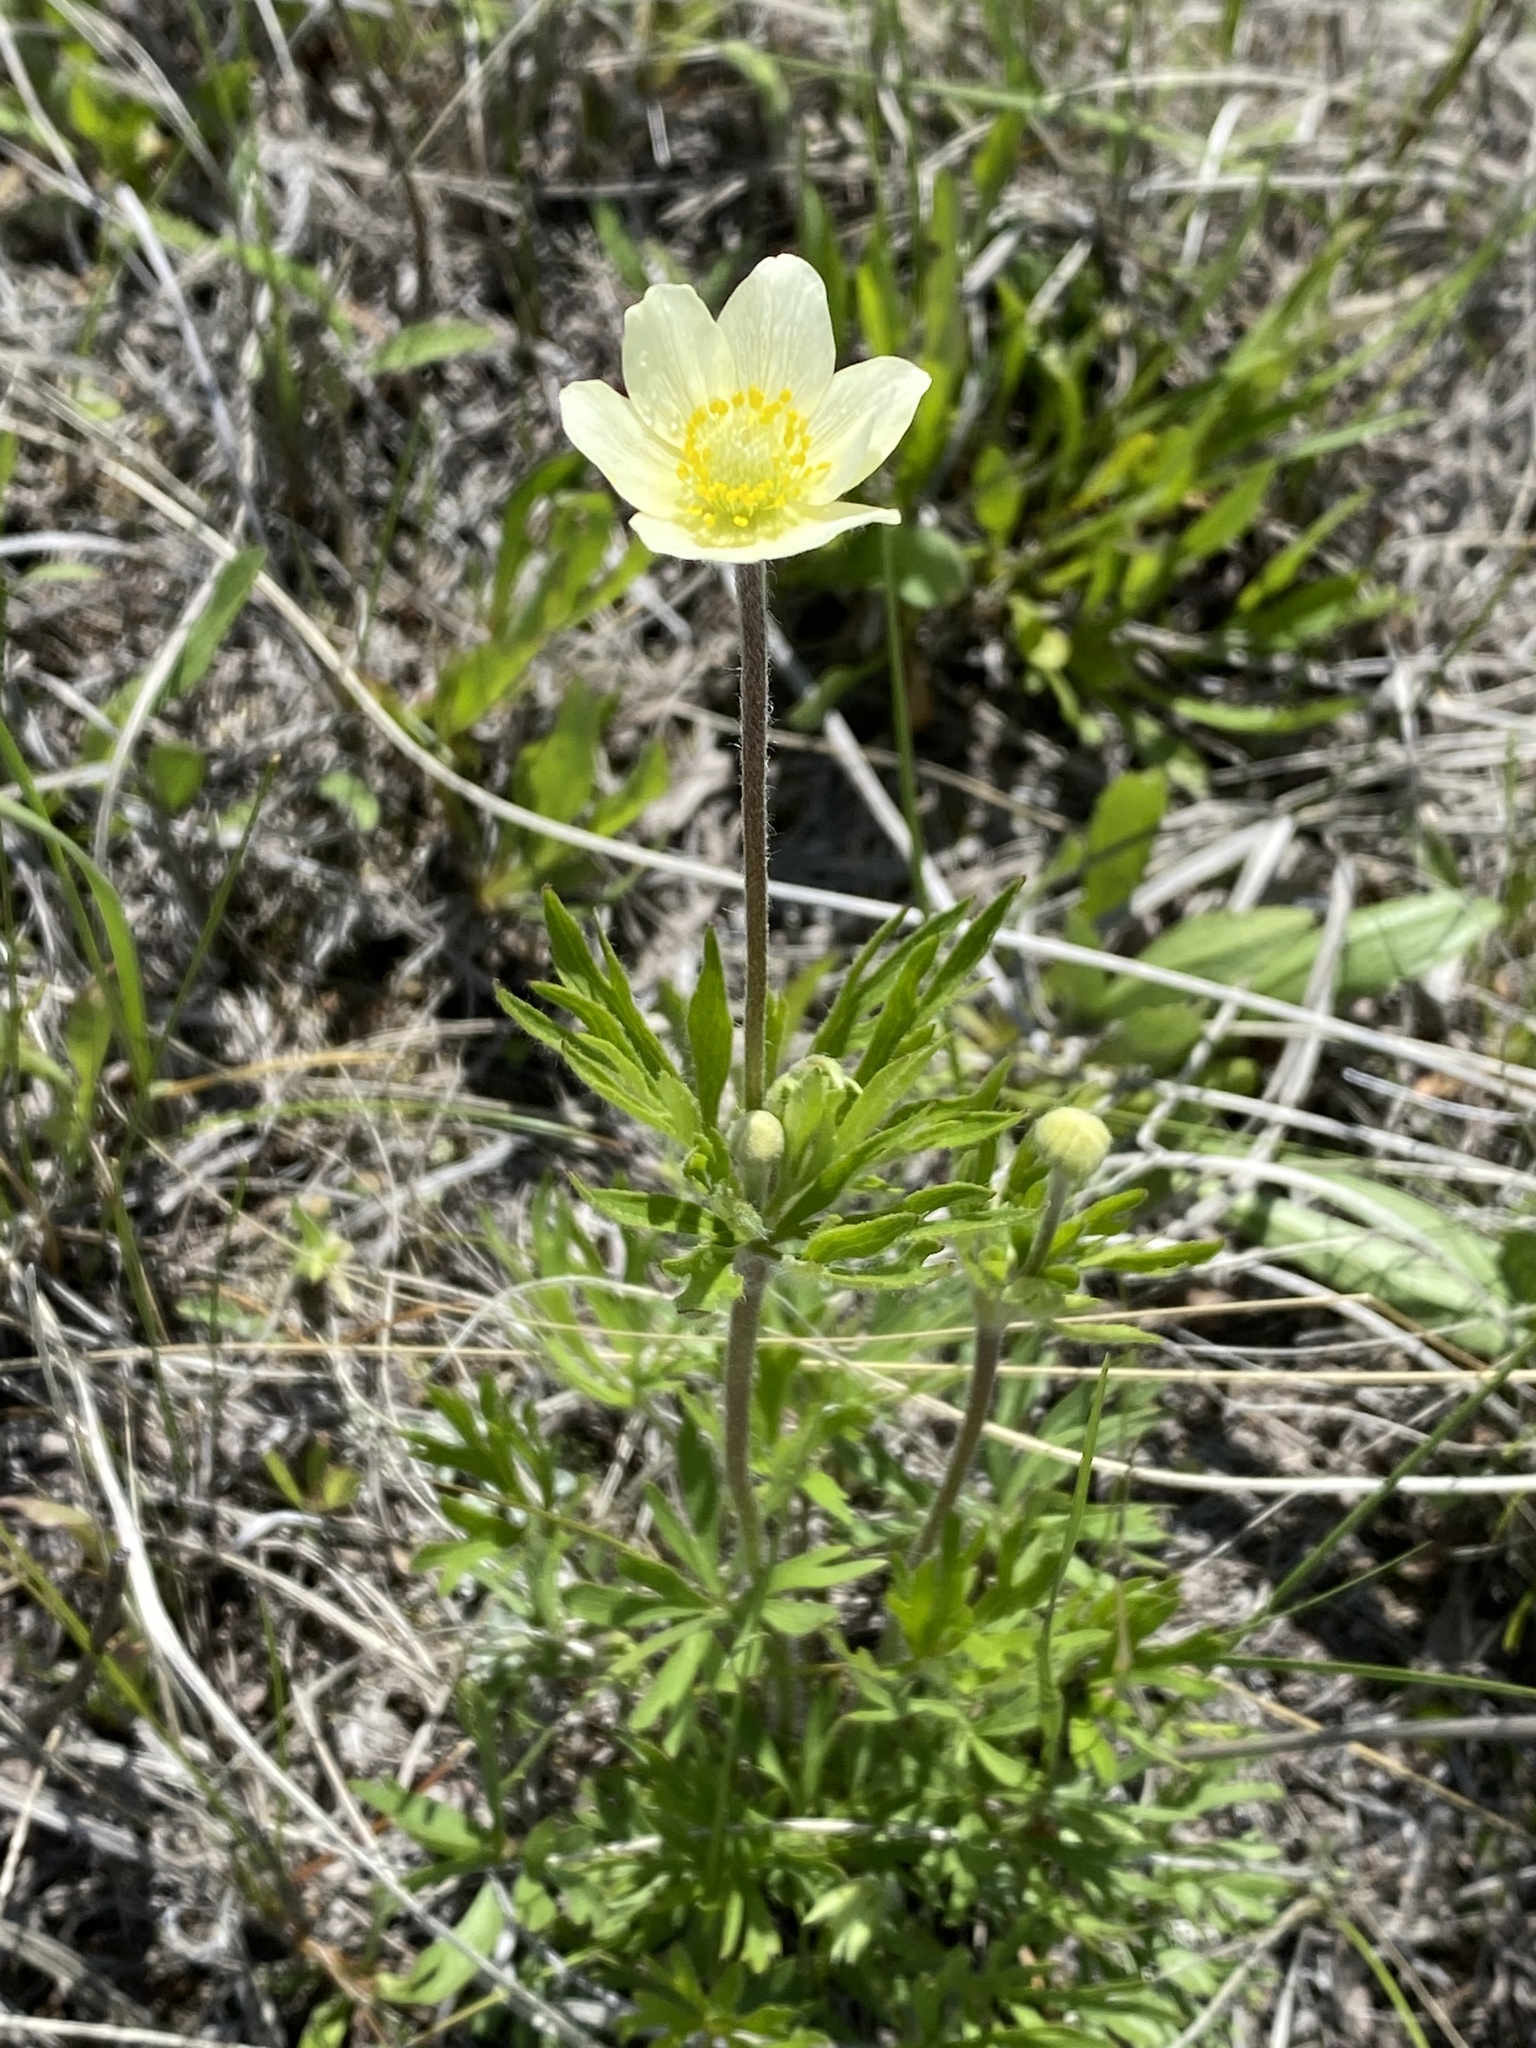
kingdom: Plantae
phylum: Tracheophyta
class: Magnoliopsida
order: Ranunculales
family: Ranunculaceae
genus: Anemone
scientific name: Anemone multifida
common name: Bird's-foot anemone
